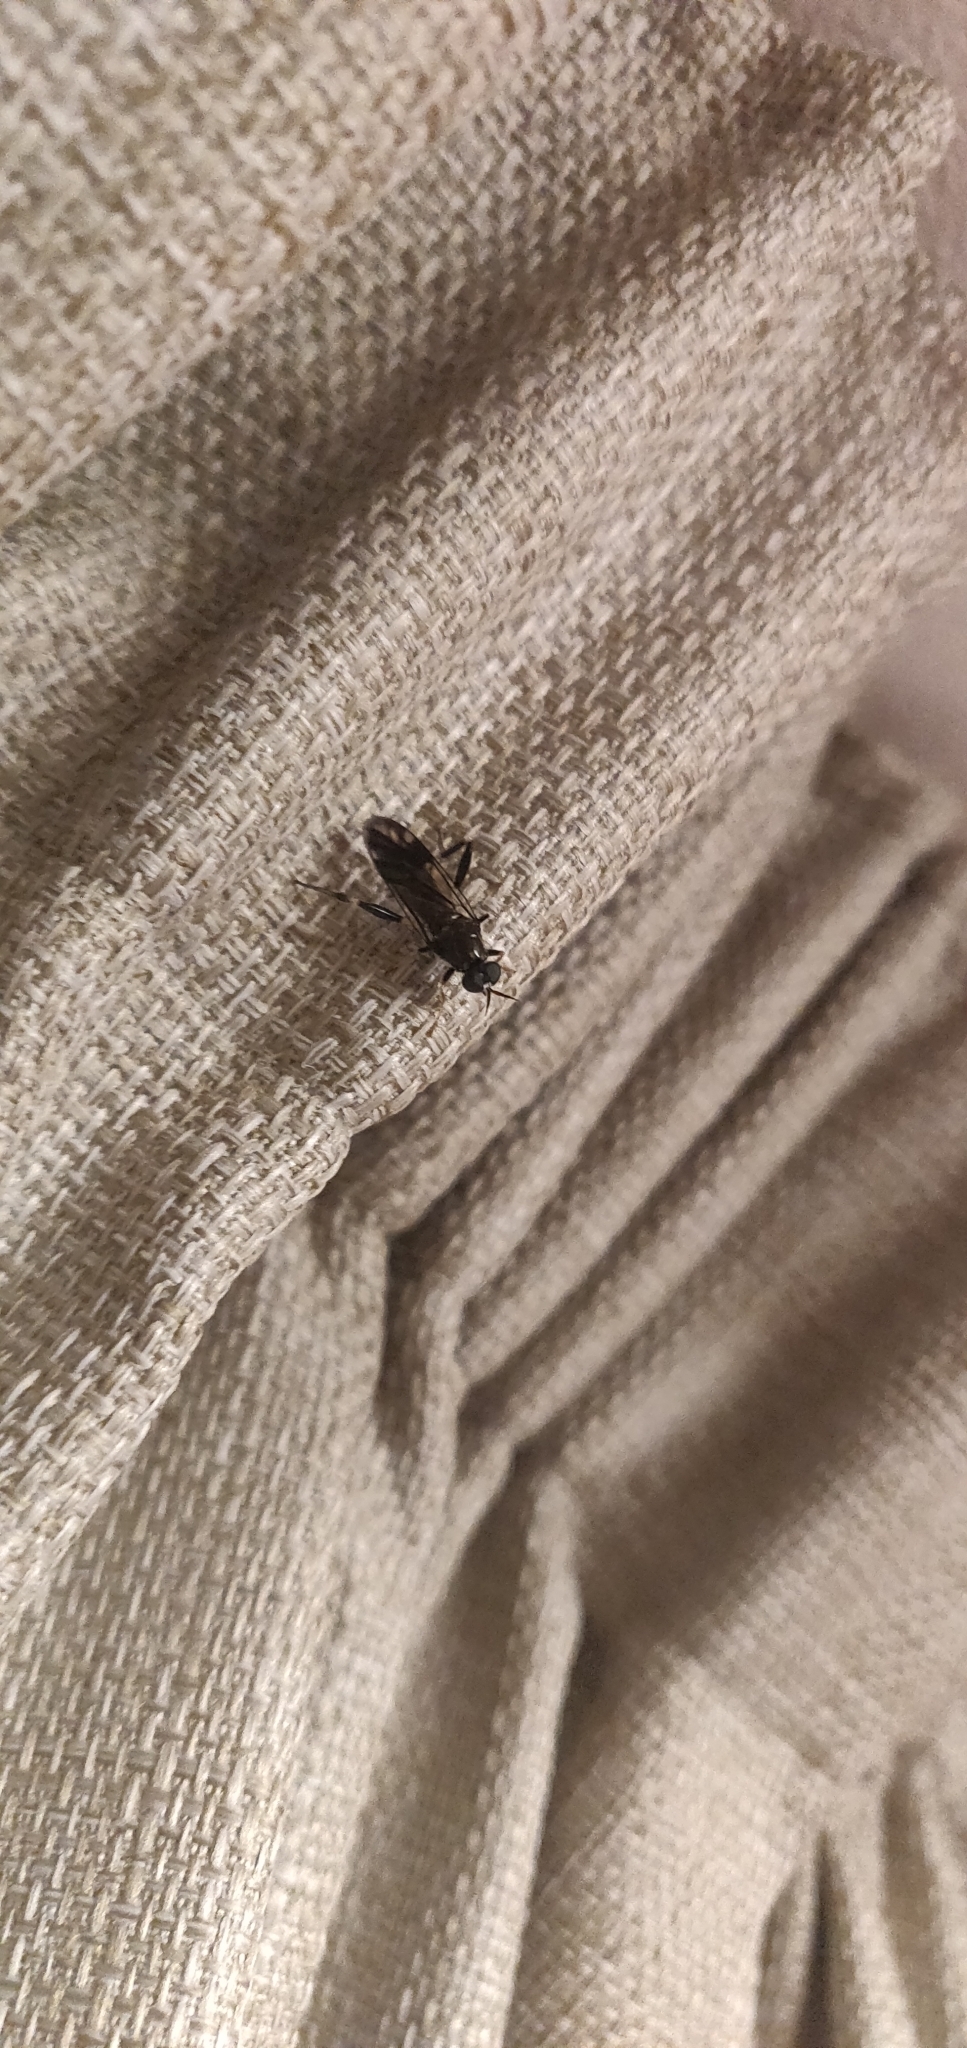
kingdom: Animalia
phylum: Arthropoda
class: Insecta
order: Diptera
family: Stratiomyidae
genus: Exaireta
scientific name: Exaireta spinigera
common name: Blue soldier fly
